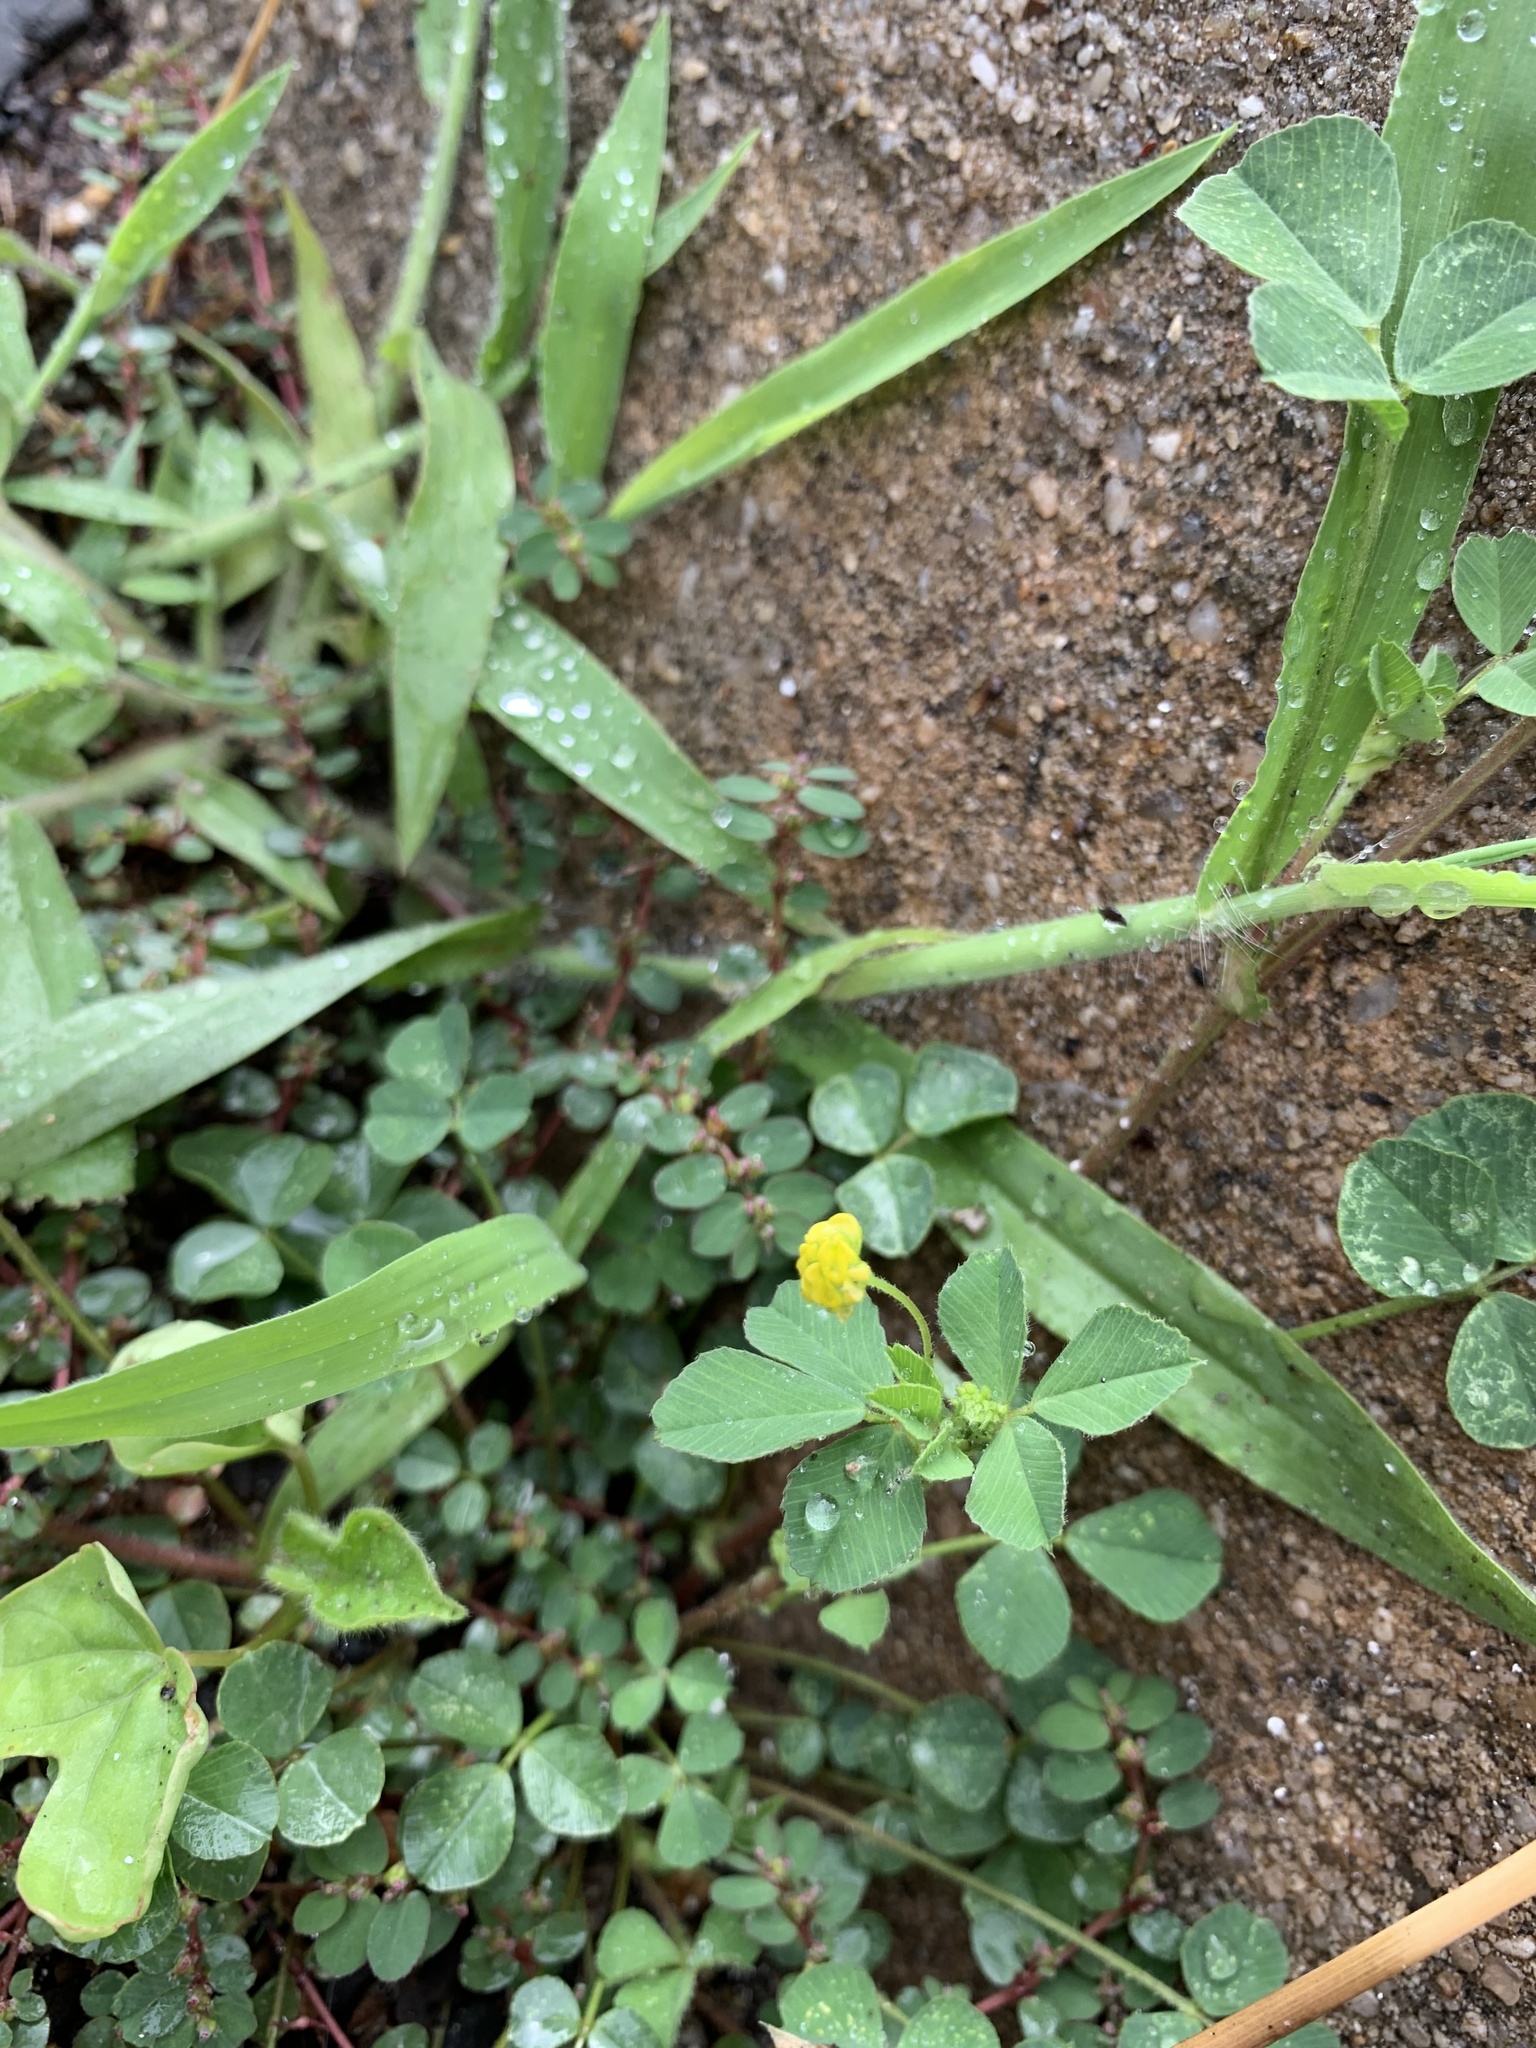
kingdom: Plantae
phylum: Tracheophyta
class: Magnoliopsida
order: Fabales
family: Fabaceae
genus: Medicago
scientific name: Medicago lupulina
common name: Black medick
